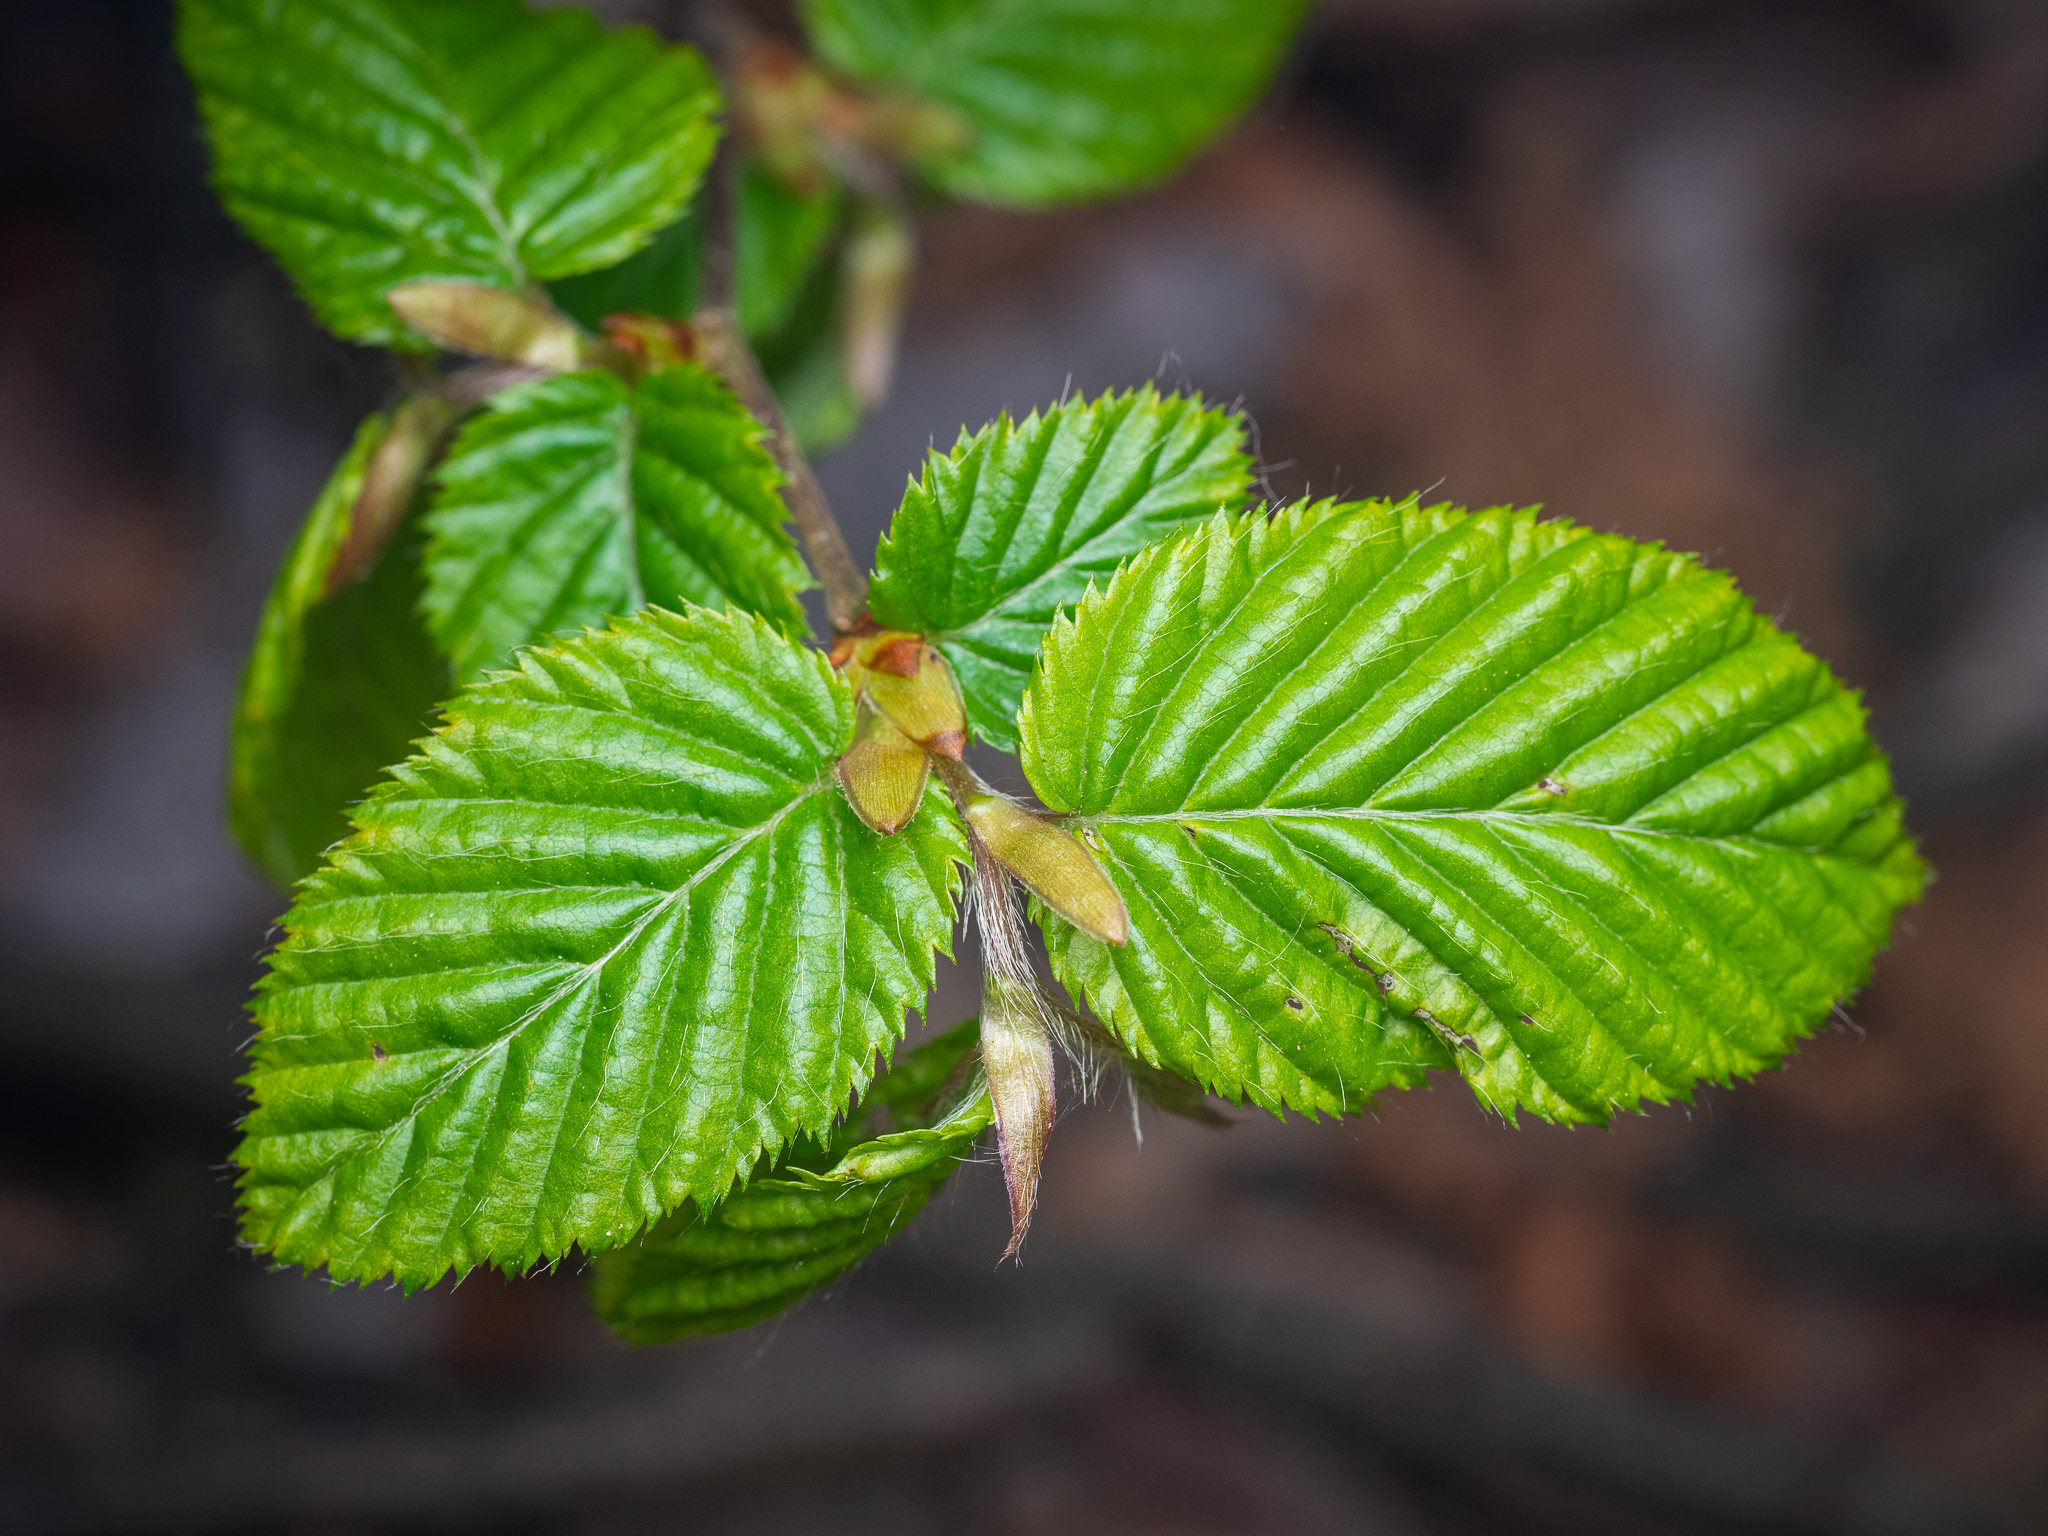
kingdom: Plantae
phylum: Tracheophyta
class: Magnoliopsida
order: Fagales
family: Betulaceae
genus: Carpinus
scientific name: Carpinus betulus
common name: Hornbeam
